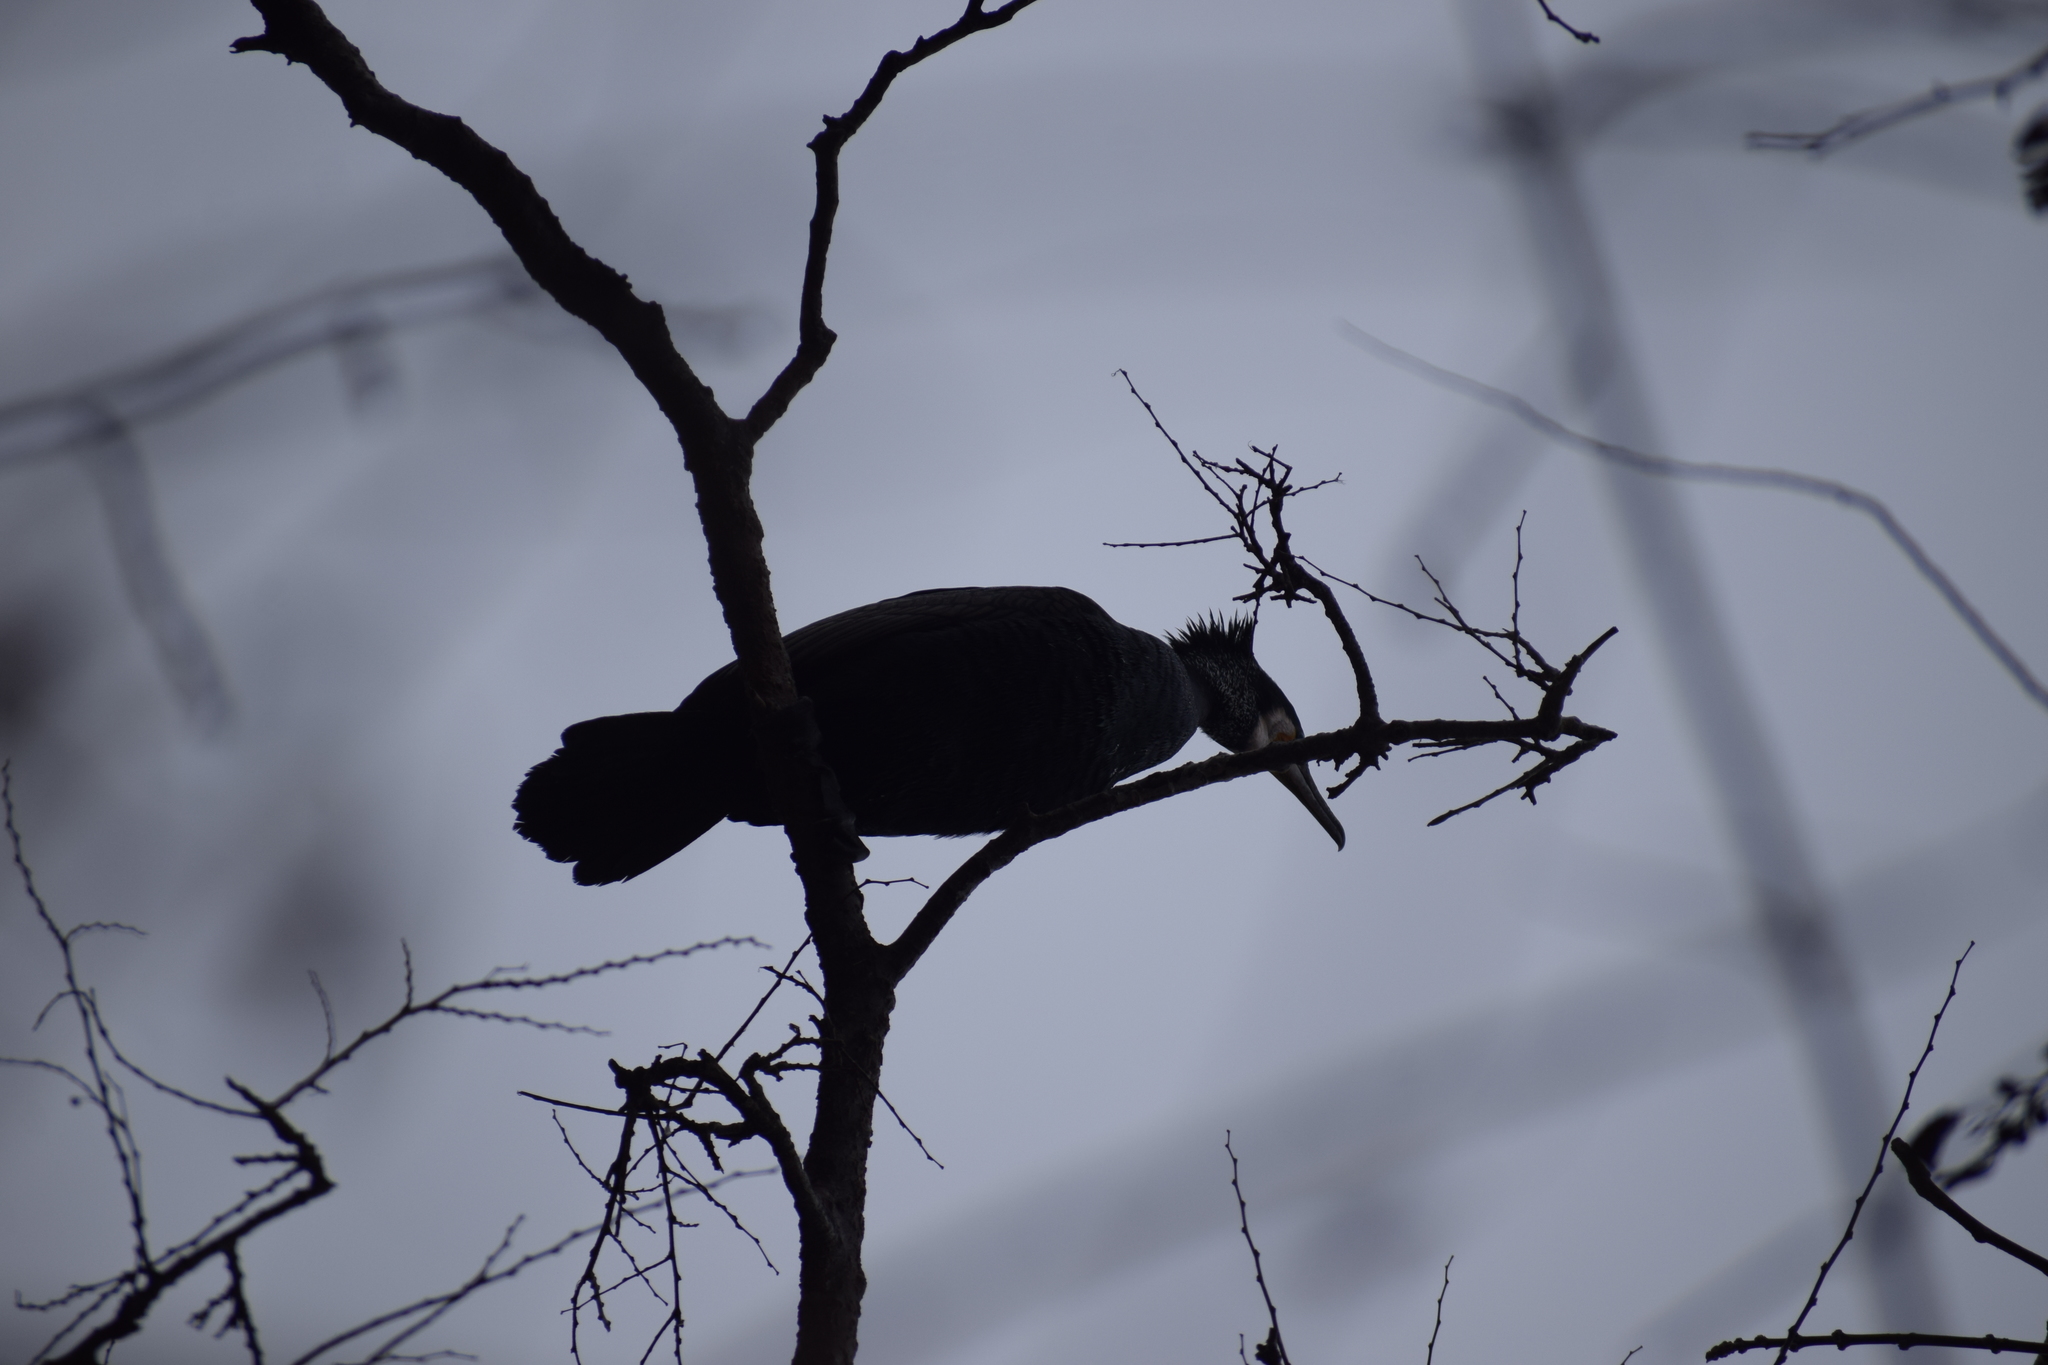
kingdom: Animalia
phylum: Chordata
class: Aves
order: Suliformes
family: Phalacrocoracidae
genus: Phalacrocorax
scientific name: Phalacrocorax carbo
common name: Great cormorant
